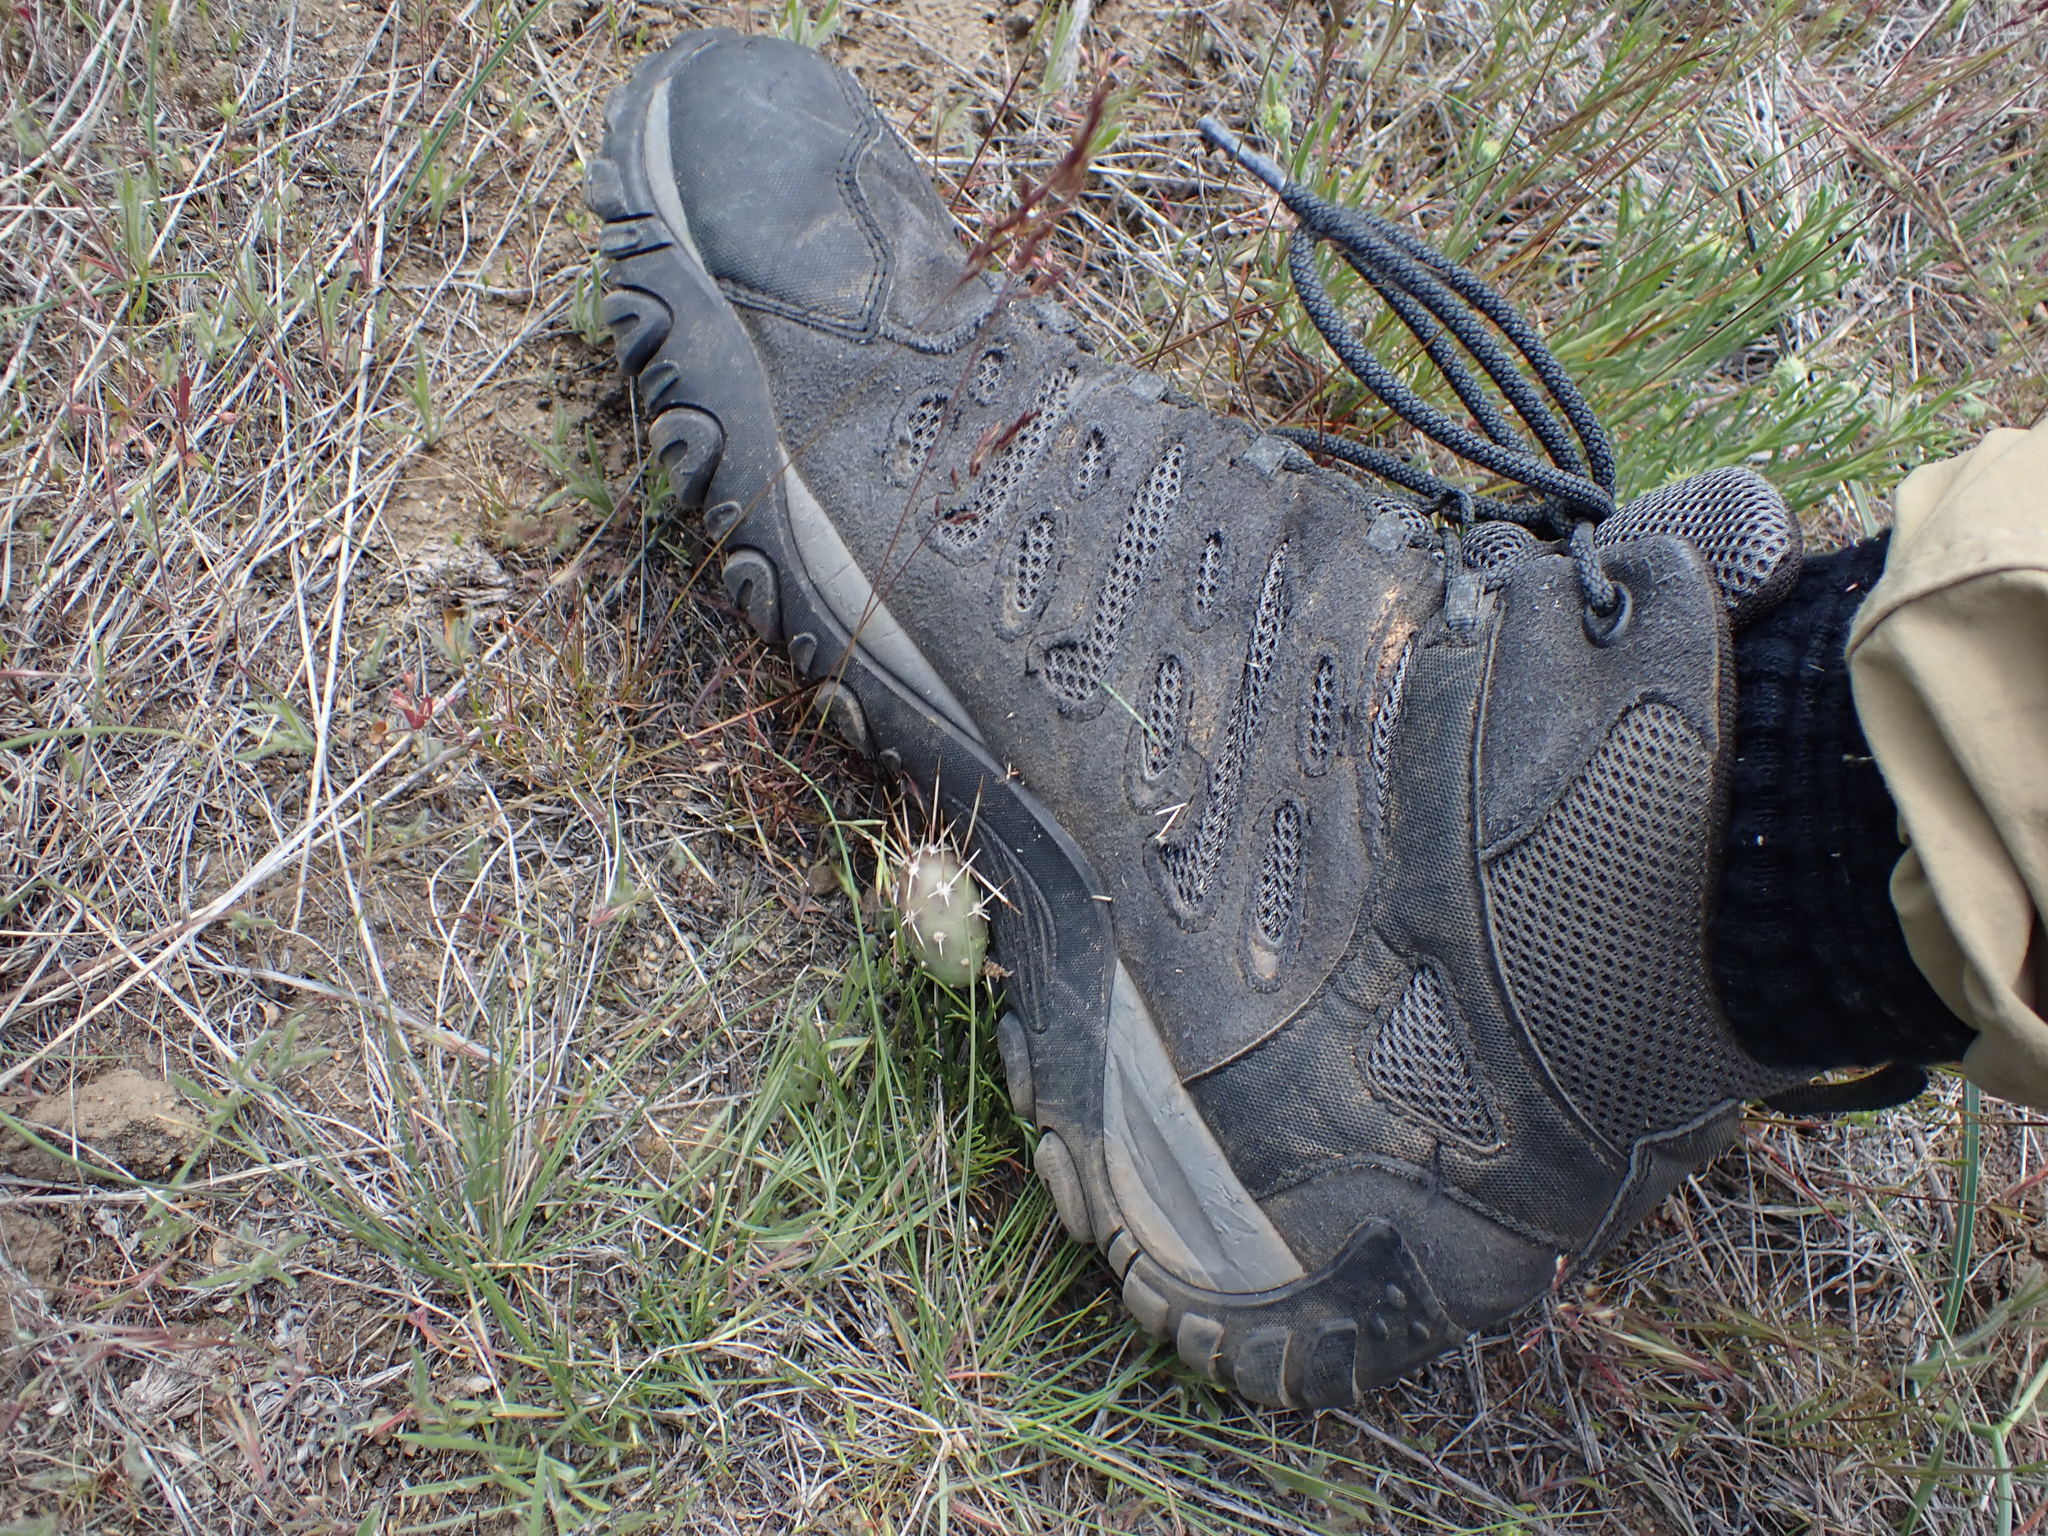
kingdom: Plantae
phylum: Tracheophyta
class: Magnoliopsida
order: Caryophyllales
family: Cactaceae
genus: Opuntia
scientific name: Opuntia fragilis
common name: Brittle cactus
